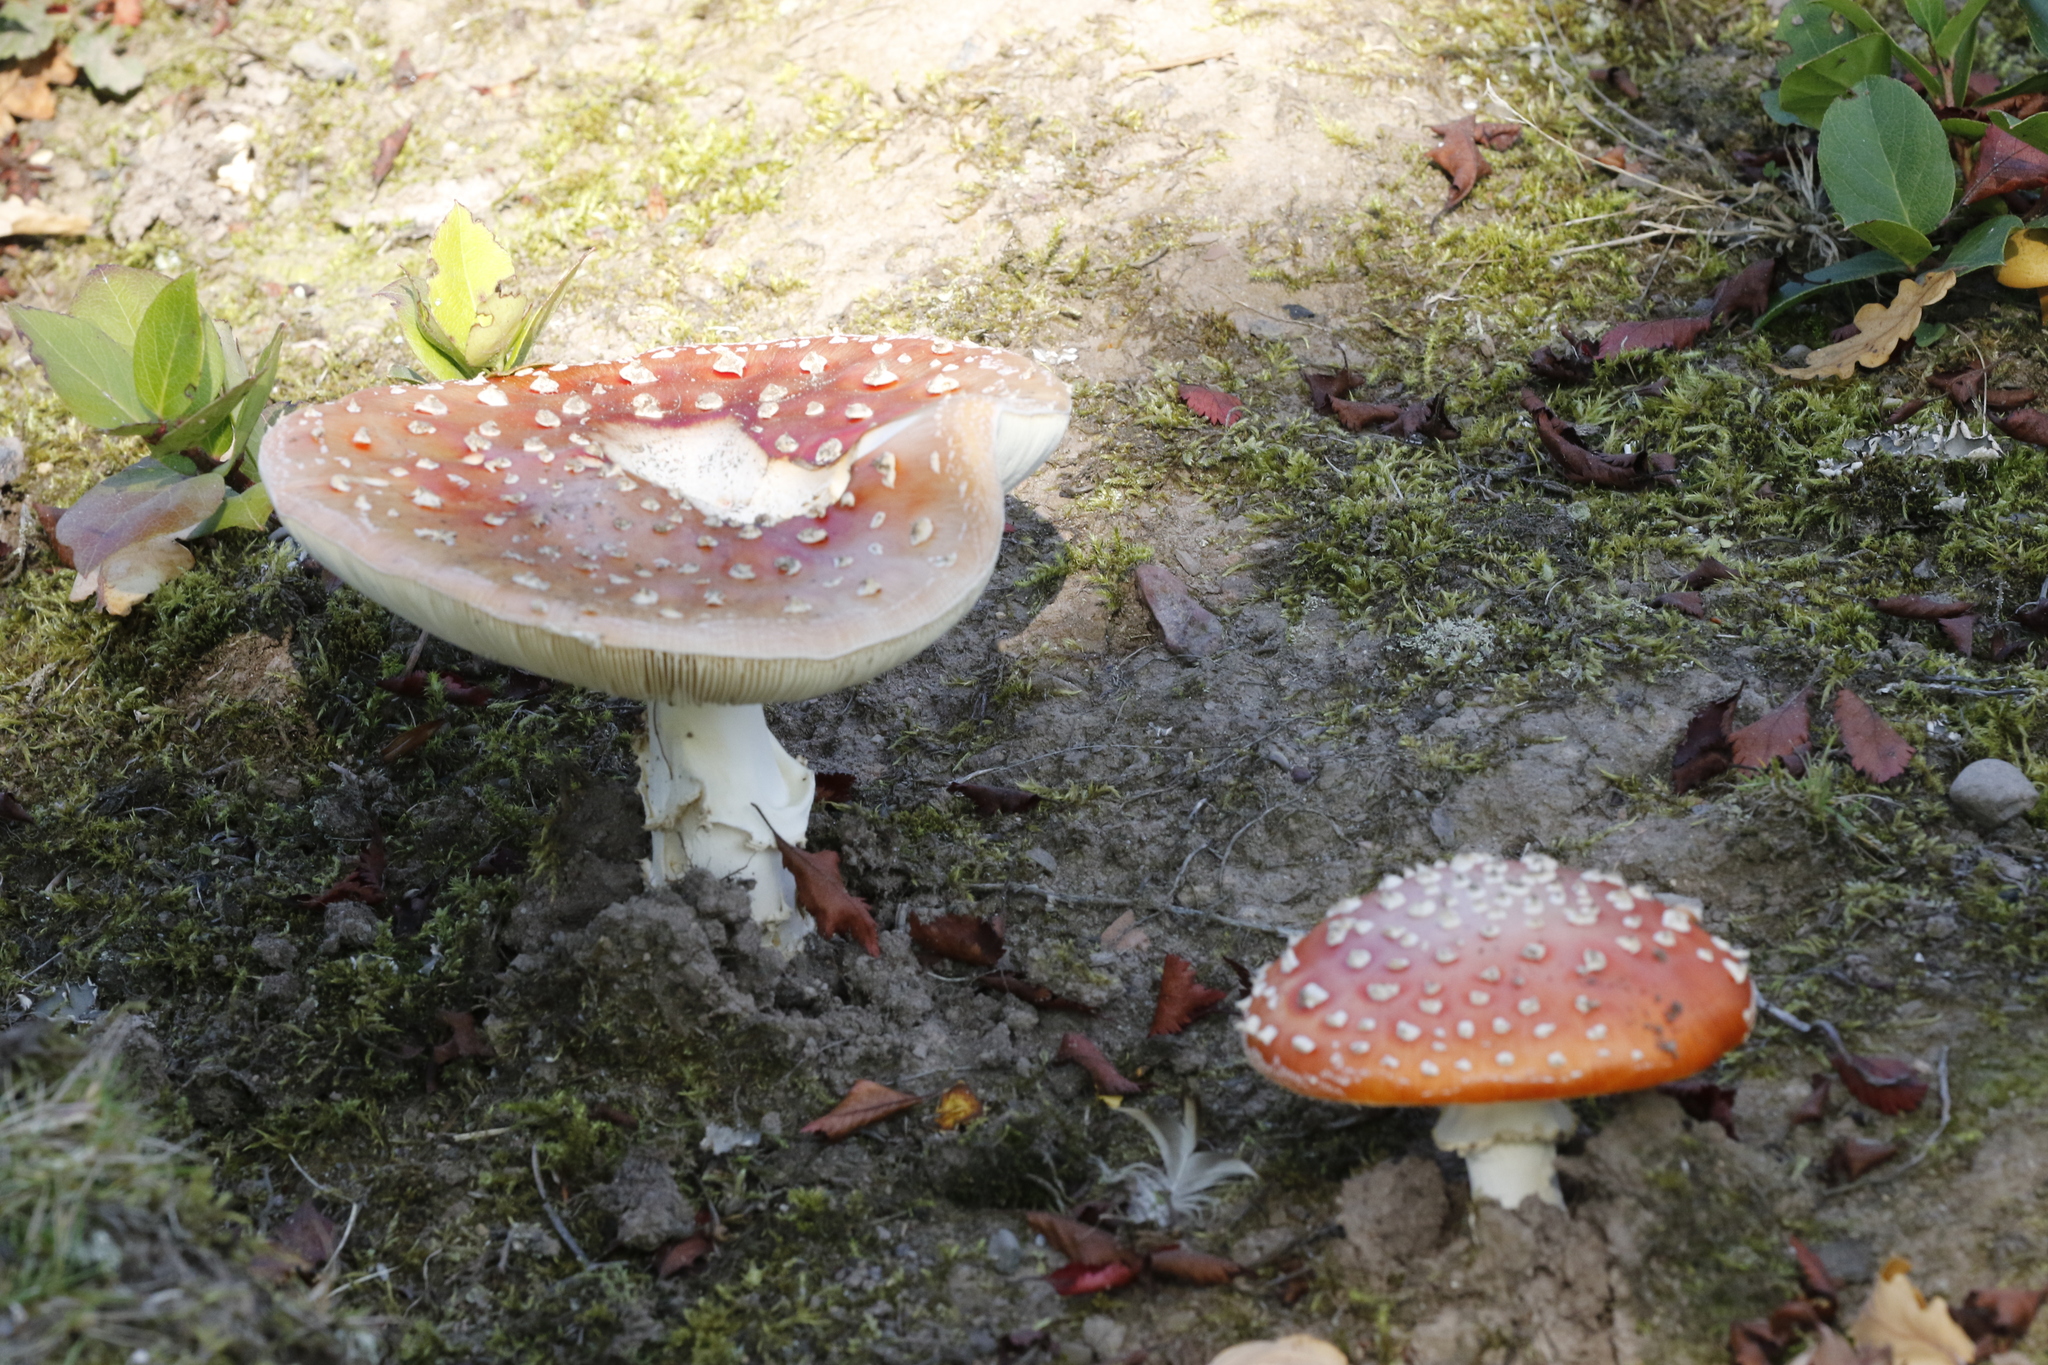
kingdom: Fungi
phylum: Basidiomycota
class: Agaricomycetes
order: Agaricales
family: Amanitaceae
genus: Amanita
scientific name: Amanita muscaria
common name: Fly agaric
